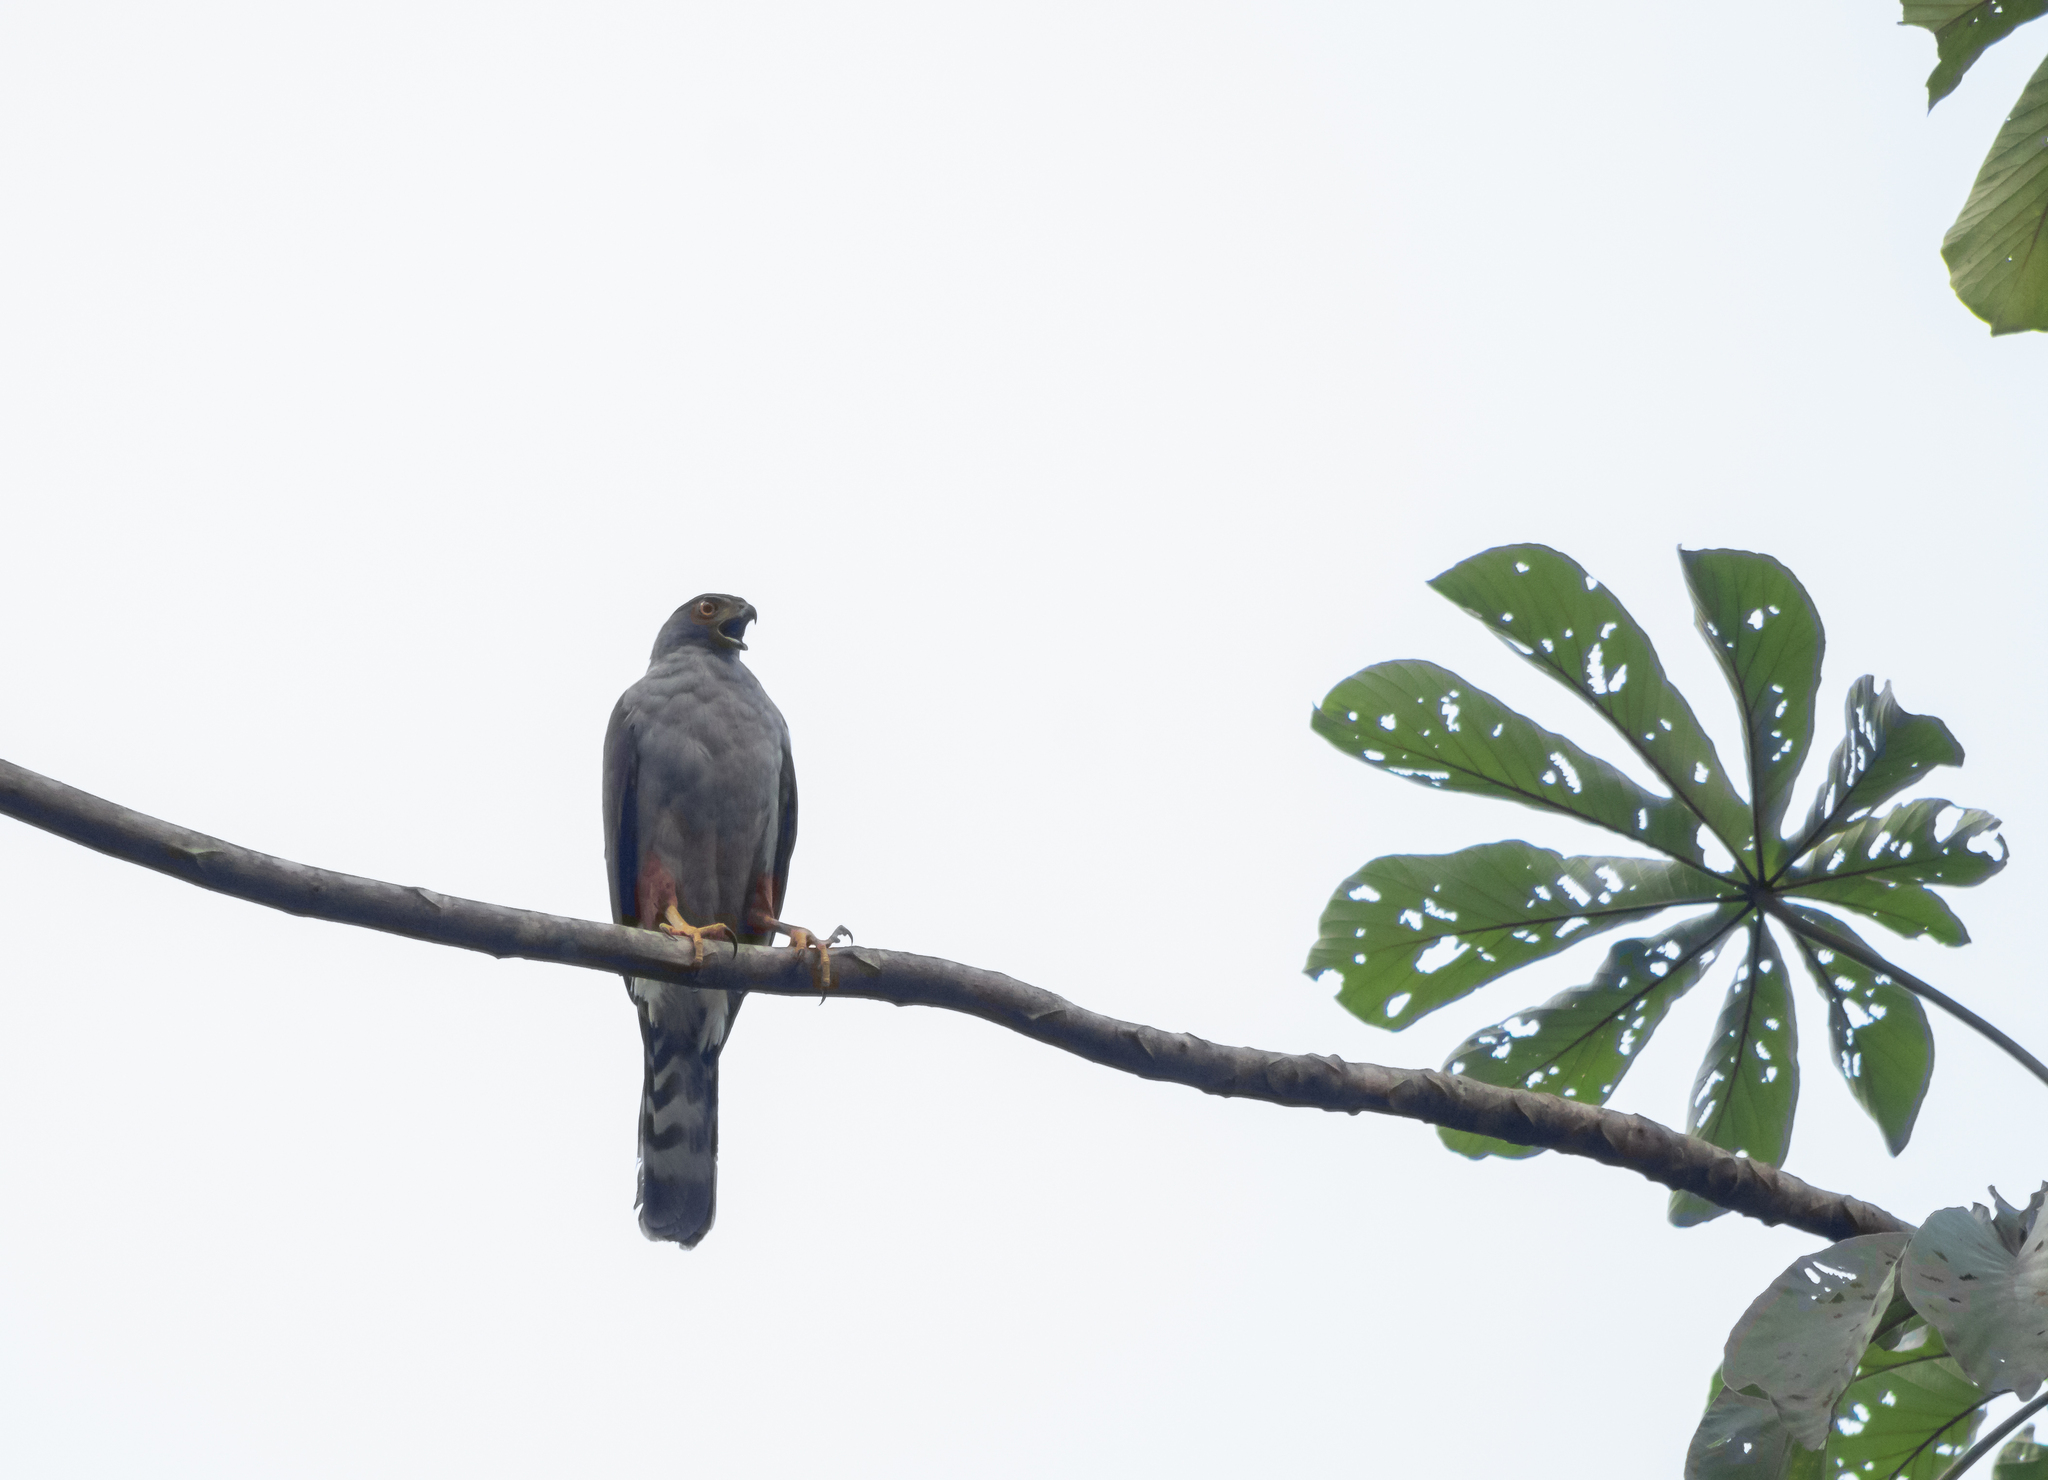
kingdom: Animalia
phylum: Chordata
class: Aves
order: Accipitriformes
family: Accipitridae
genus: Accipiter
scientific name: Accipiter bicolor
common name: Bicolored hawk
